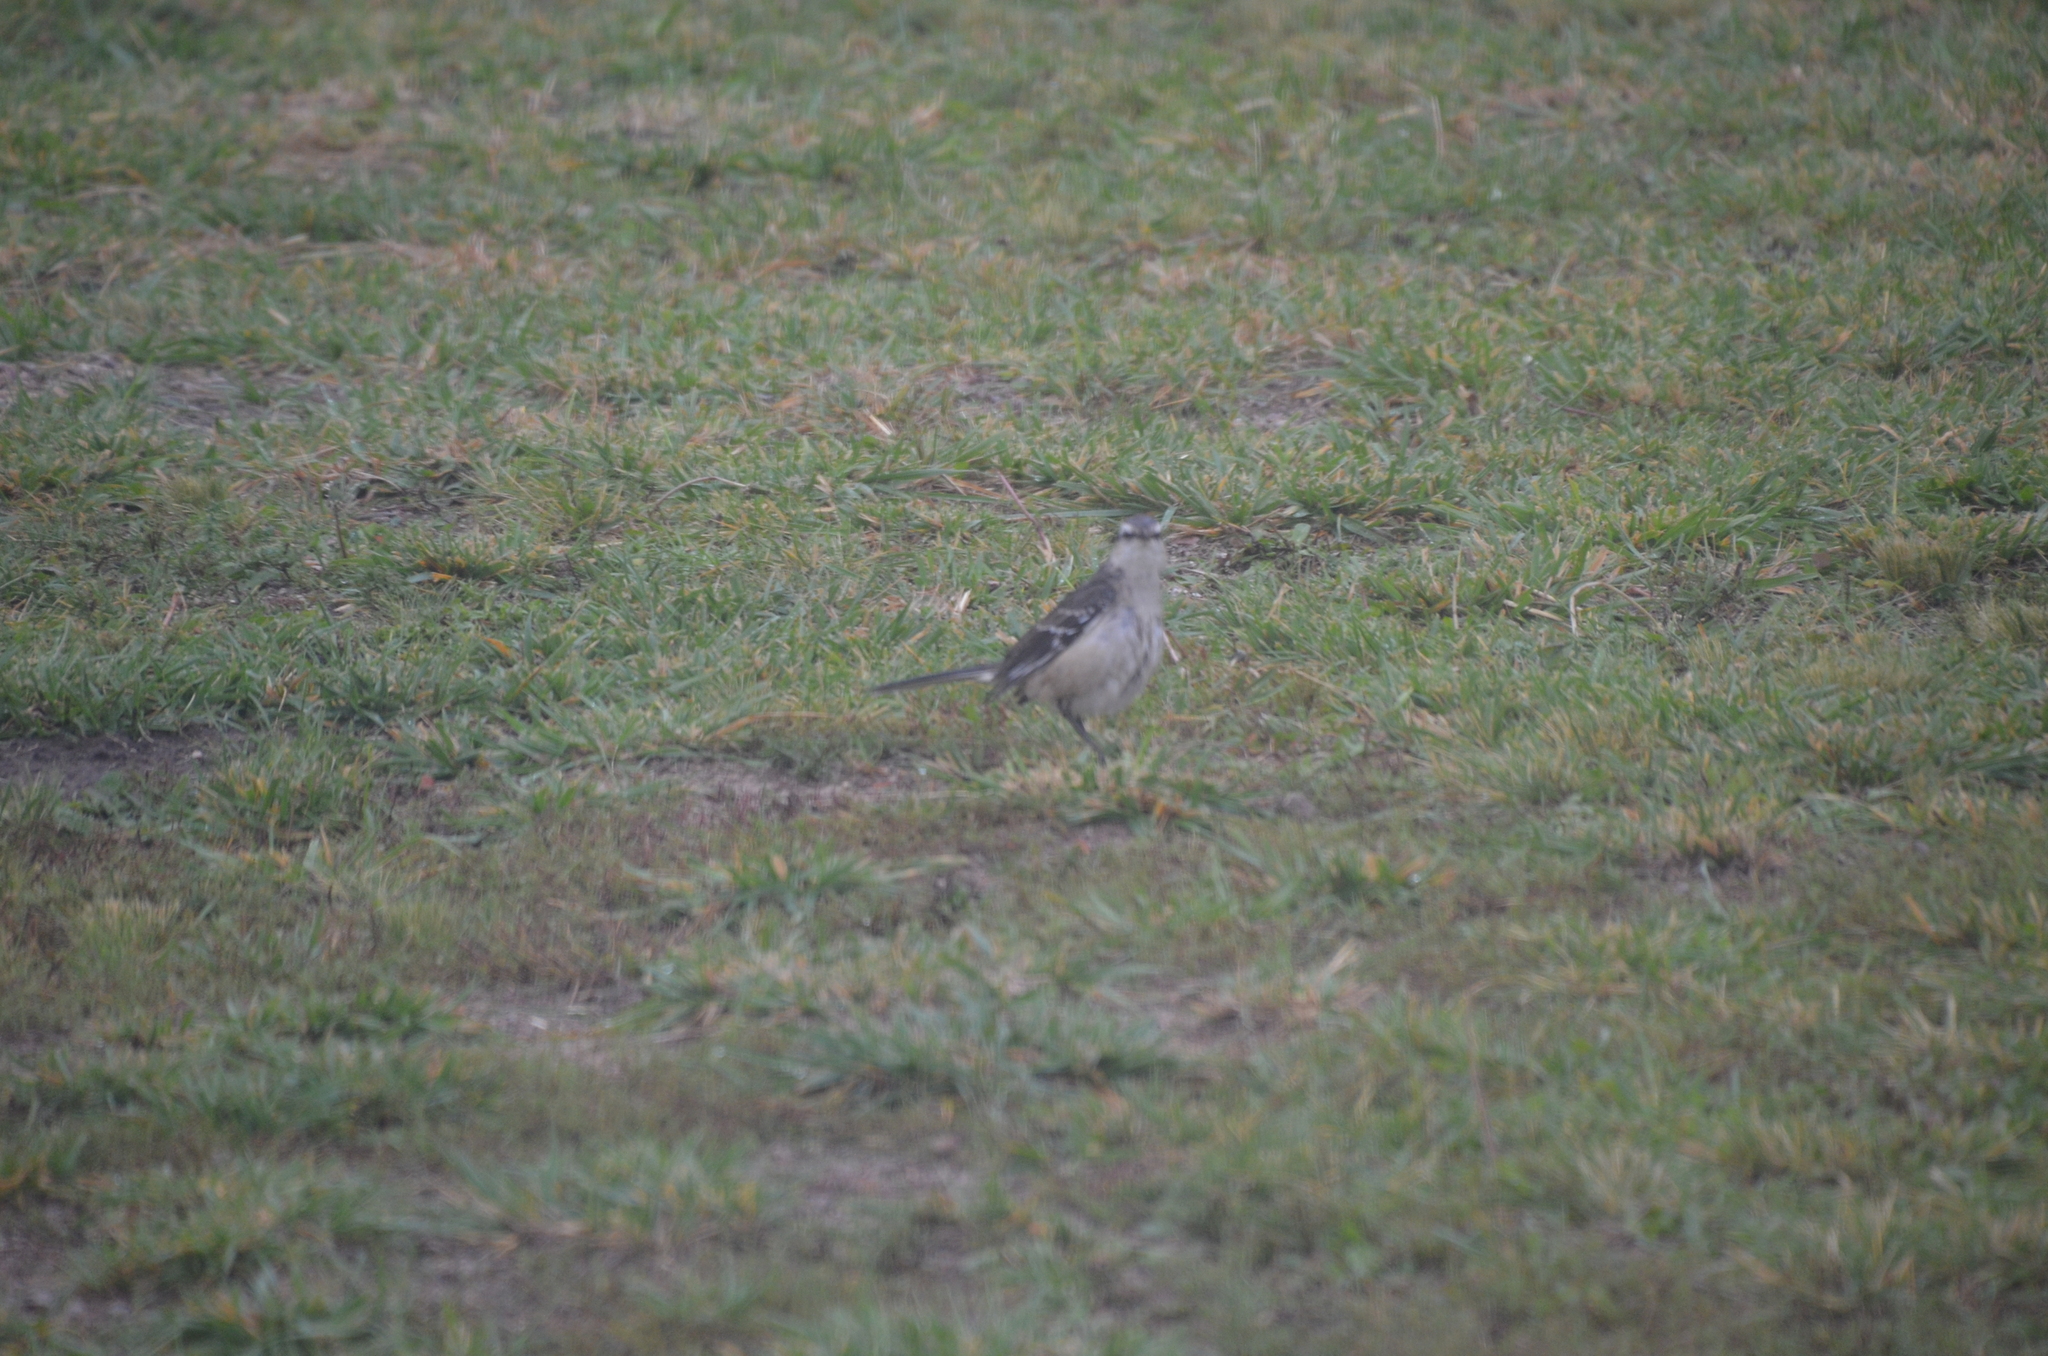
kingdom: Animalia
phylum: Chordata
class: Aves
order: Passeriformes
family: Mimidae
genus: Mimus
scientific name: Mimus saturninus
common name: Chalk-browed mockingbird
